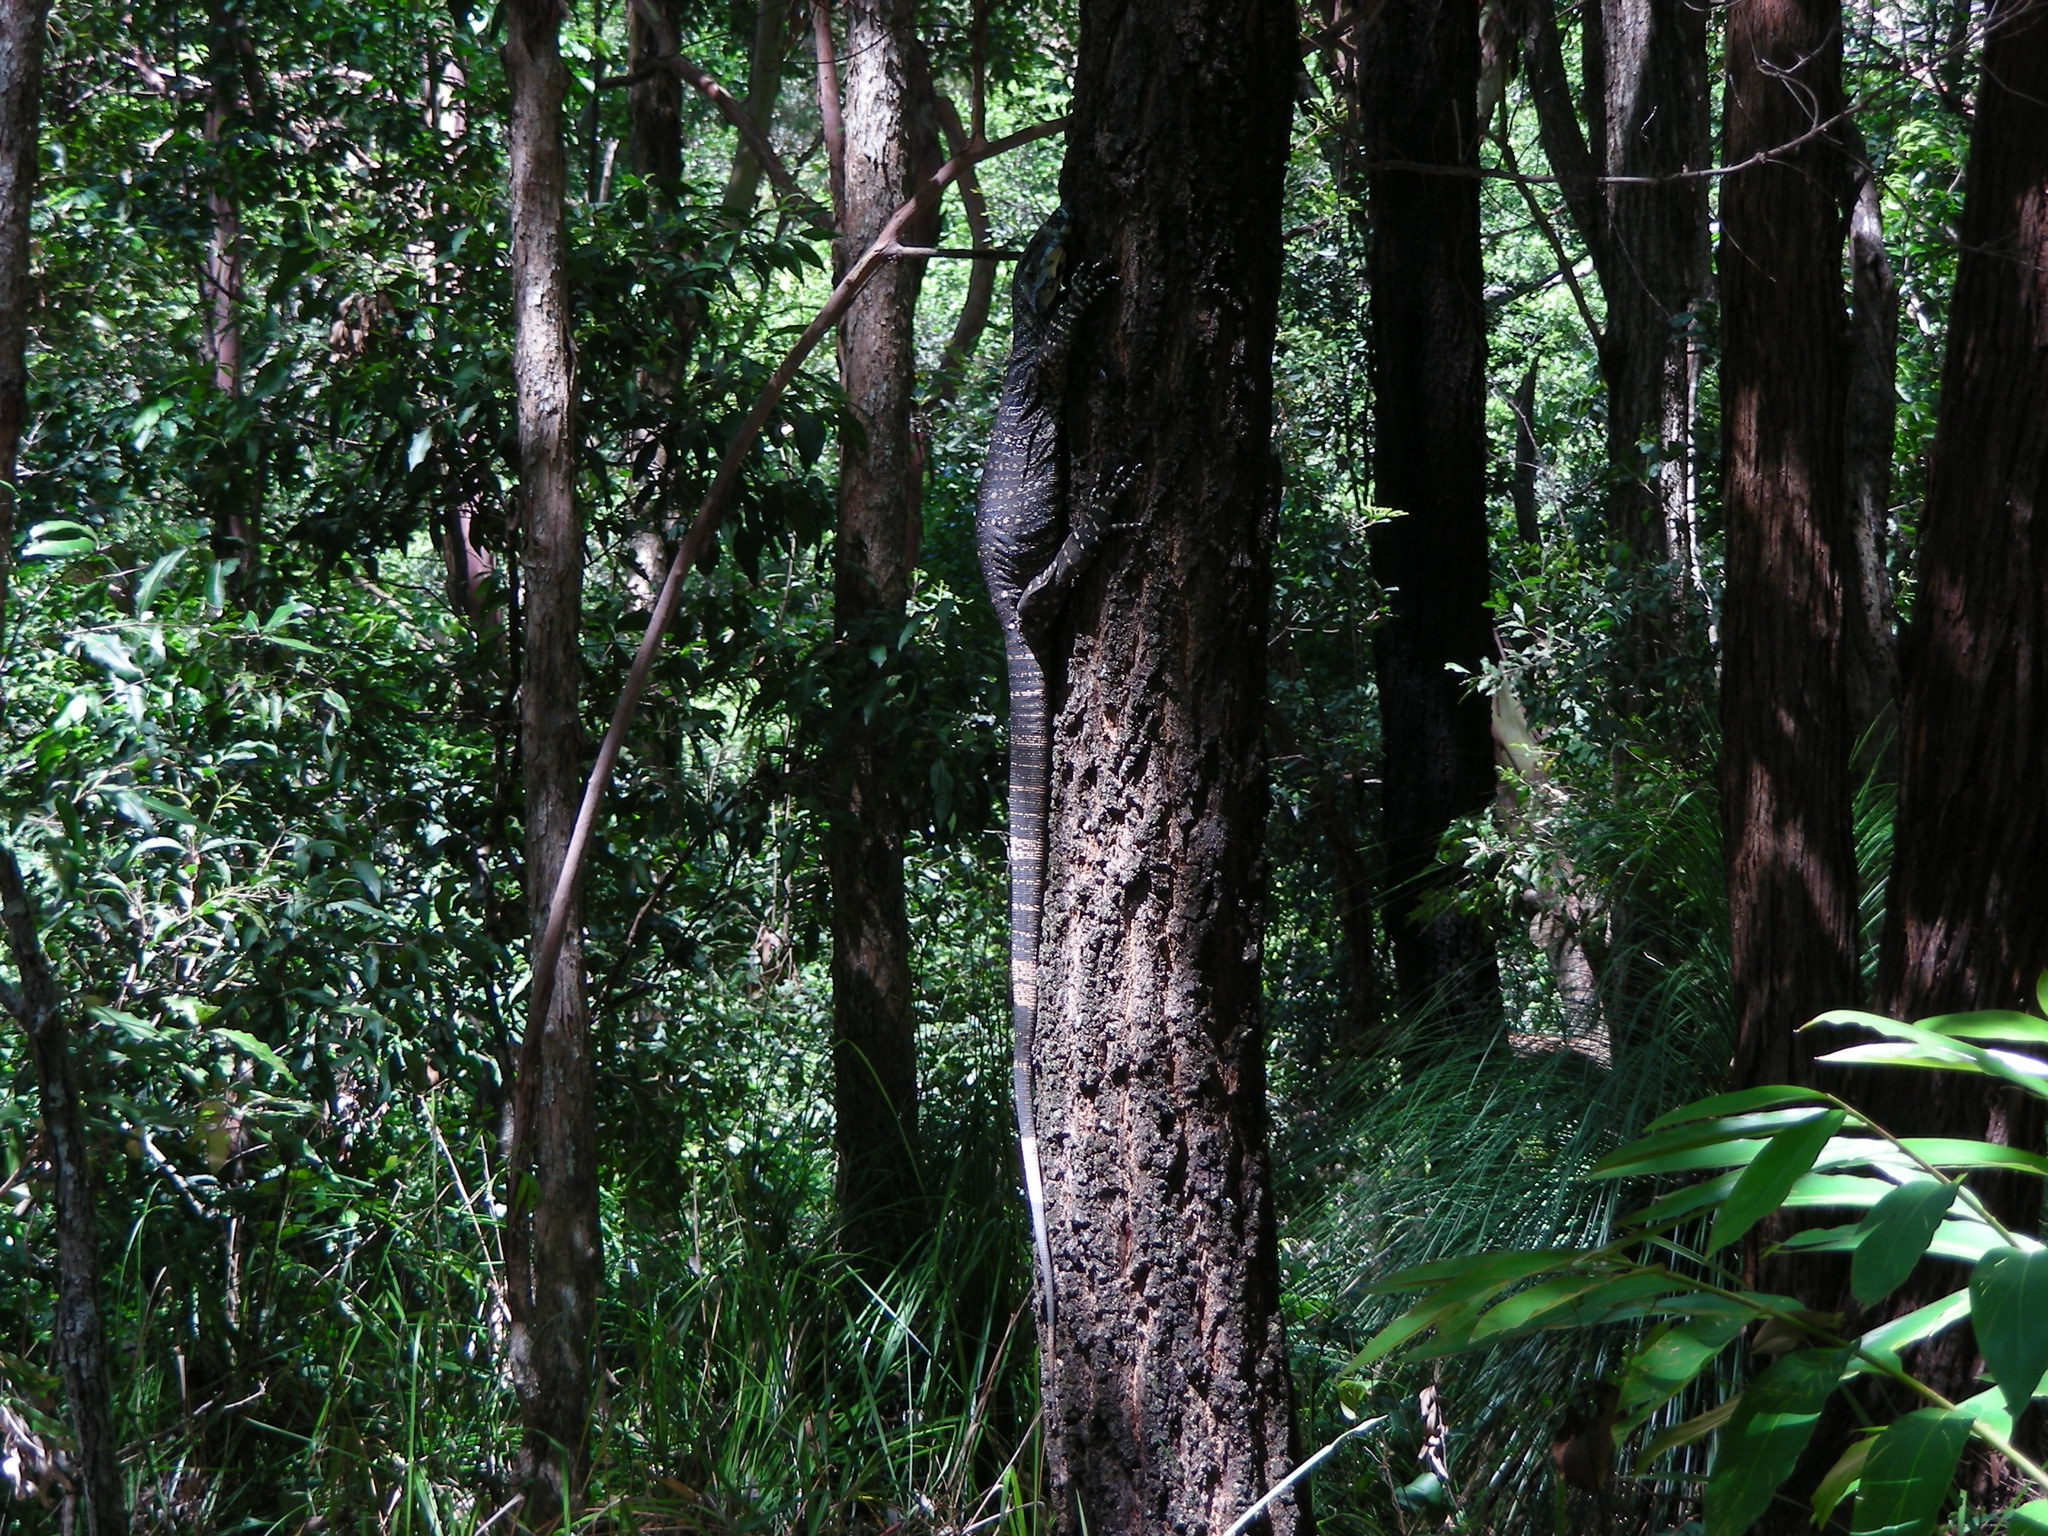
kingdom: Animalia
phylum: Chordata
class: Squamata
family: Varanidae
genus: Varanus
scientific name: Varanus varius
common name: Lace monitor
